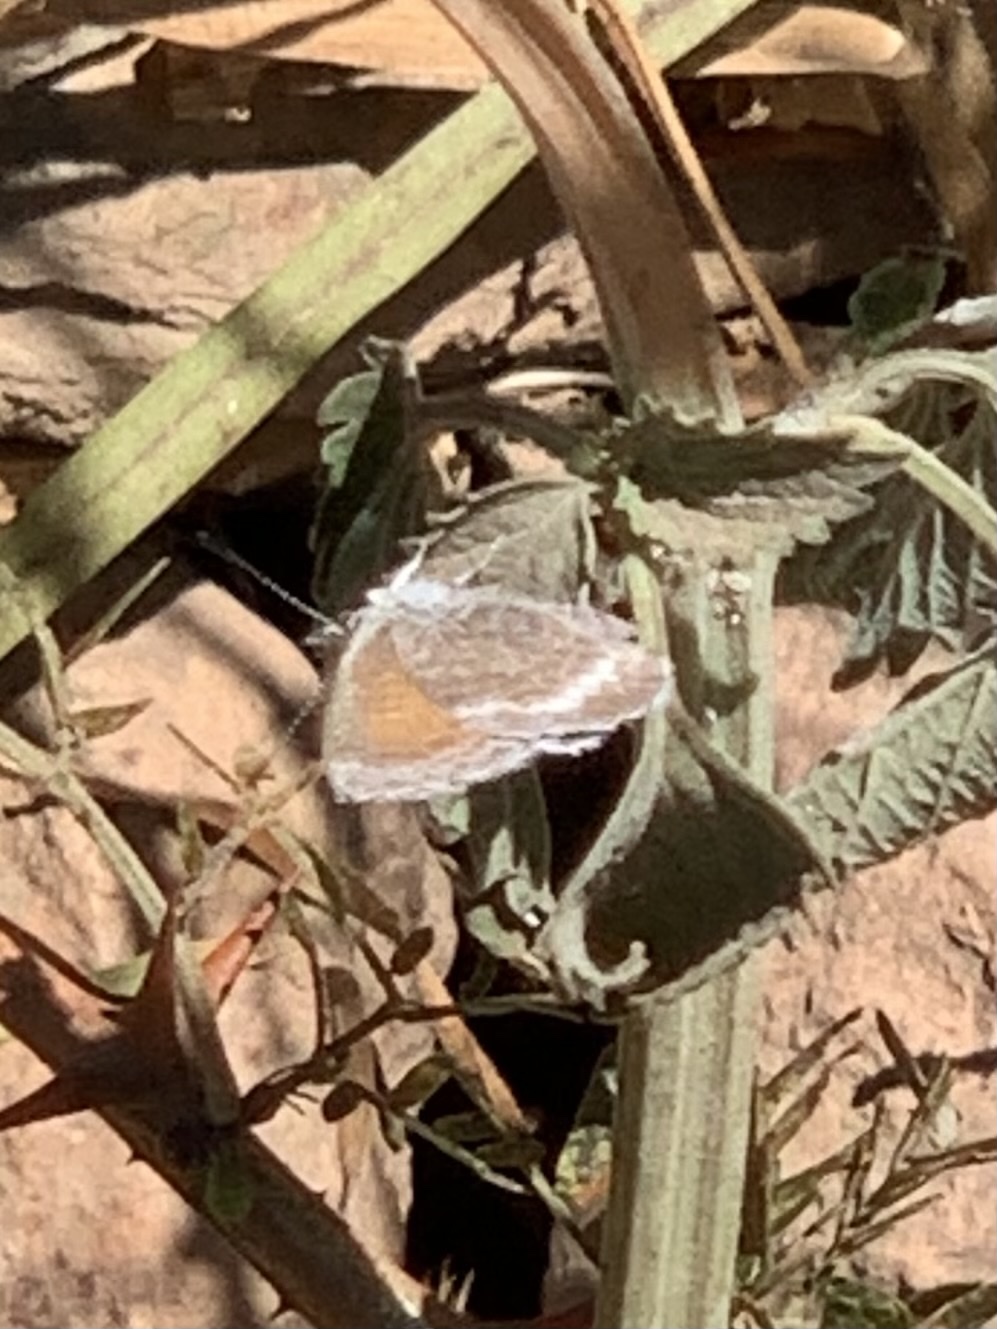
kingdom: Animalia
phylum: Arthropoda
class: Insecta
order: Lepidoptera
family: Lycaenidae
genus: Leptotes
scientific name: Leptotes callanga
